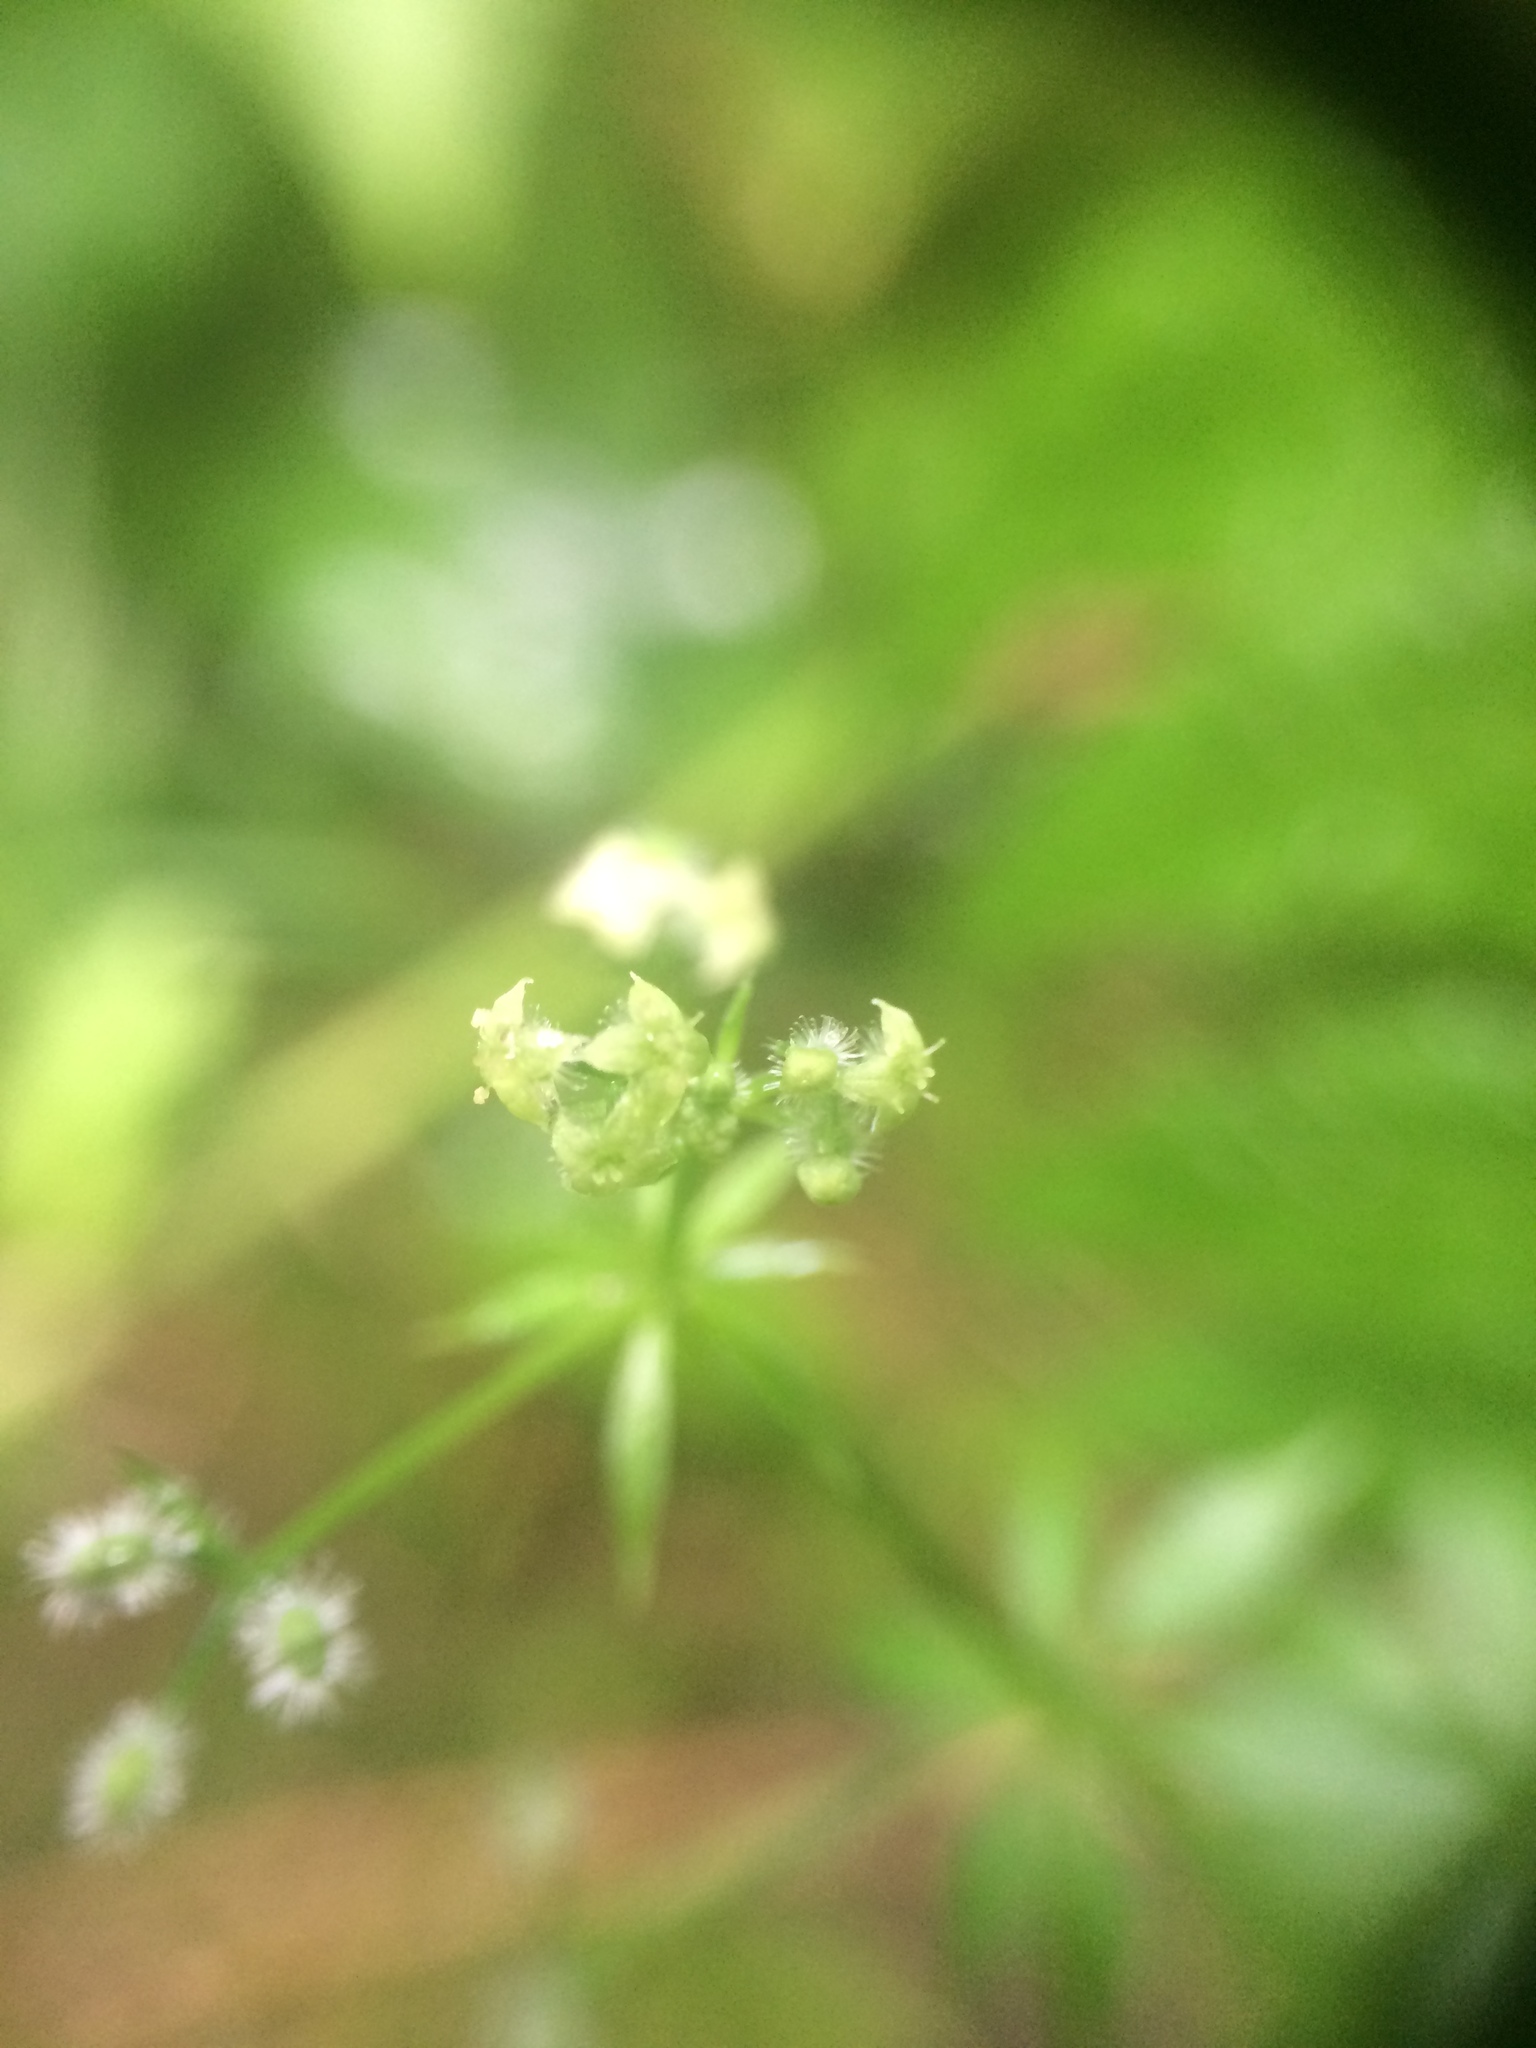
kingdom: Plantae
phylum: Tracheophyta
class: Magnoliopsida
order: Gentianales
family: Rubiaceae
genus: Galium
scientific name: Galium triflorum
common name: Fragrant bedstraw
